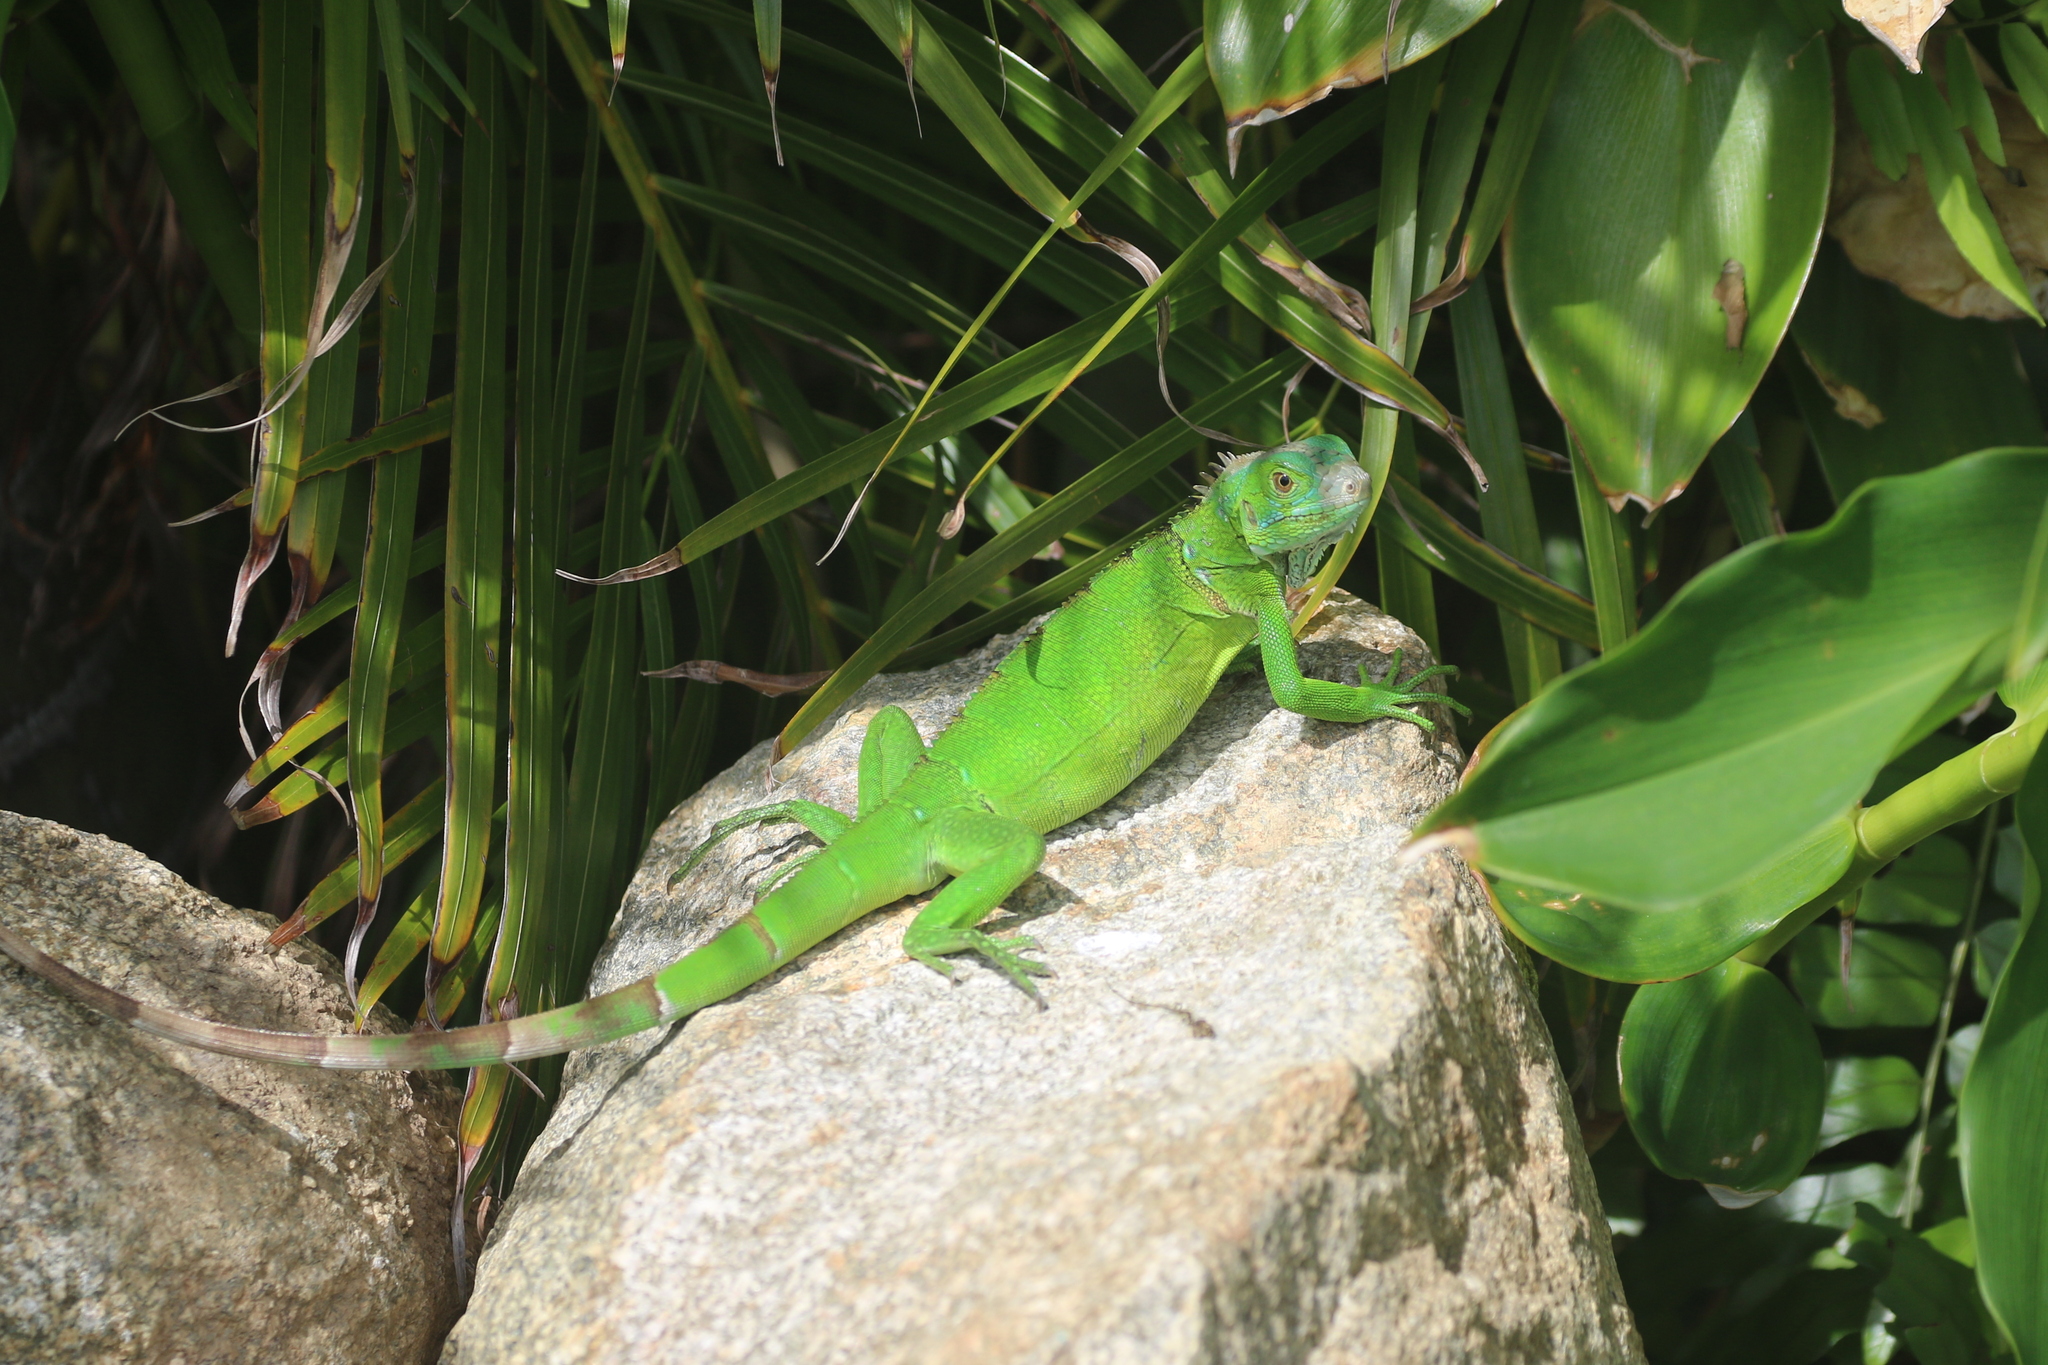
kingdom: Animalia
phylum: Chordata
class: Squamata
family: Iguanidae
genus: Iguana
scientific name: Iguana iguana
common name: Green iguana
